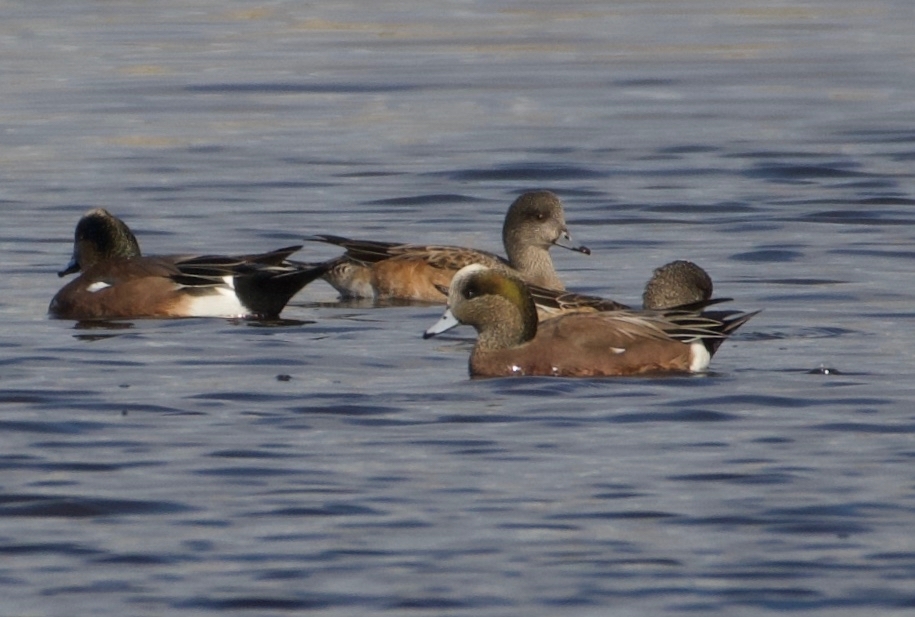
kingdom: Animalia
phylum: Chordata
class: Aves
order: Anseriformes
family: Anatidae
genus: Mareca
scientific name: Mareca americana
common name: American wigeon
